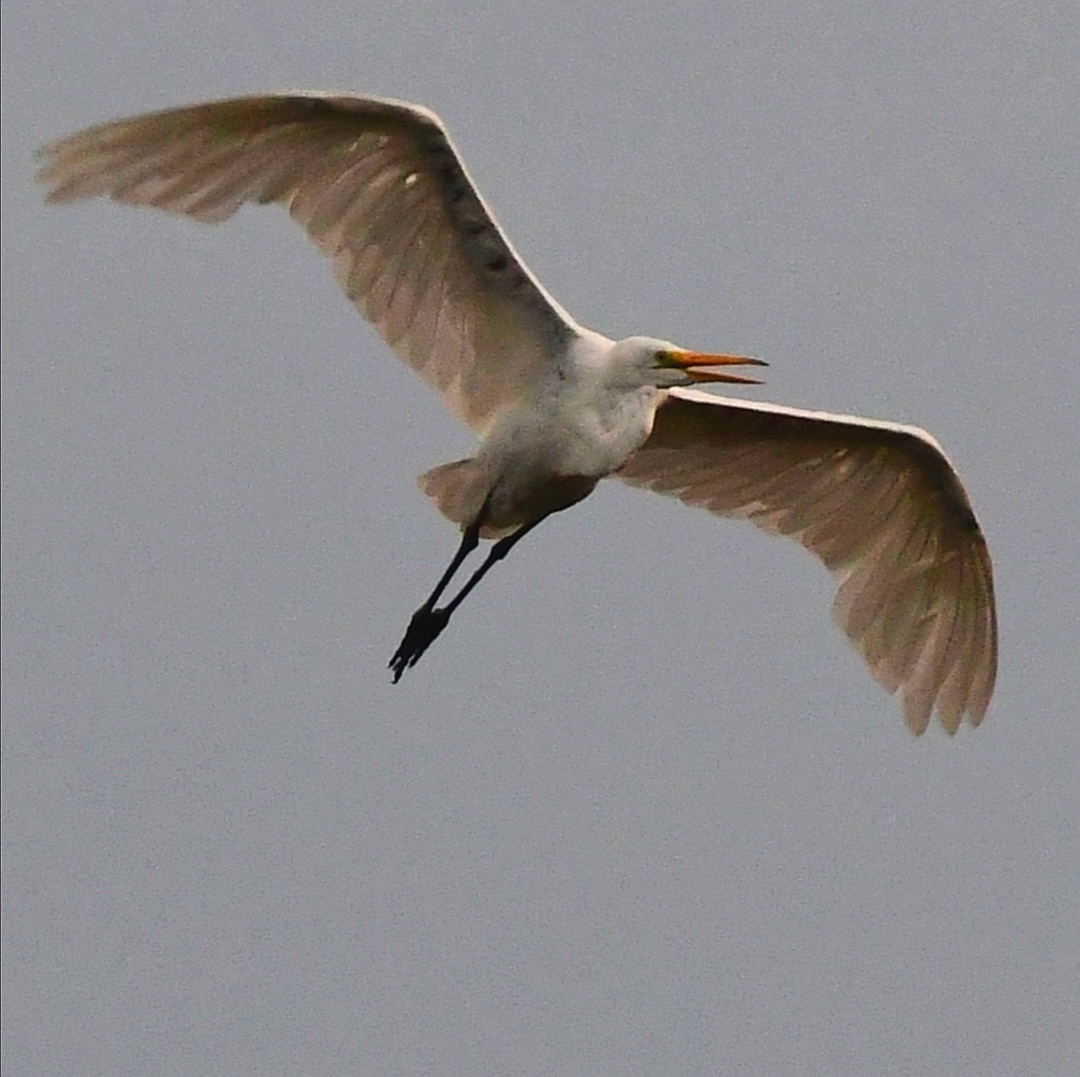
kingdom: Animalia
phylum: Chordata
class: Aves
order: Pelecaniformes
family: Ardeidae
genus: Ardea
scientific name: Ardea alba
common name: Great egret
